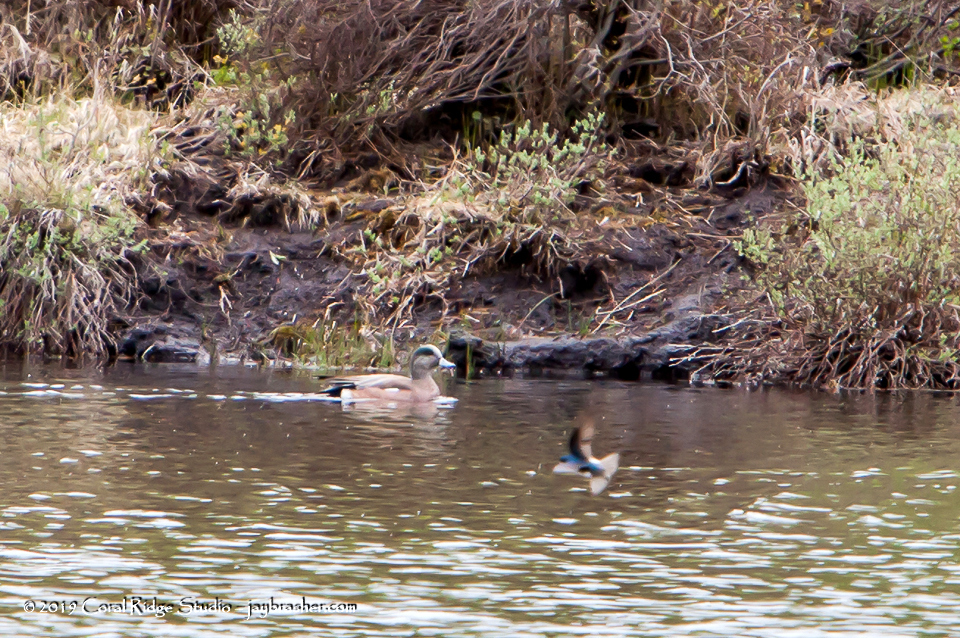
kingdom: Animalia
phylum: Chordata
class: Aves
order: Anseriformes
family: Anatidae
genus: Mareca
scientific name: Mareca americana
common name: American wigeon
